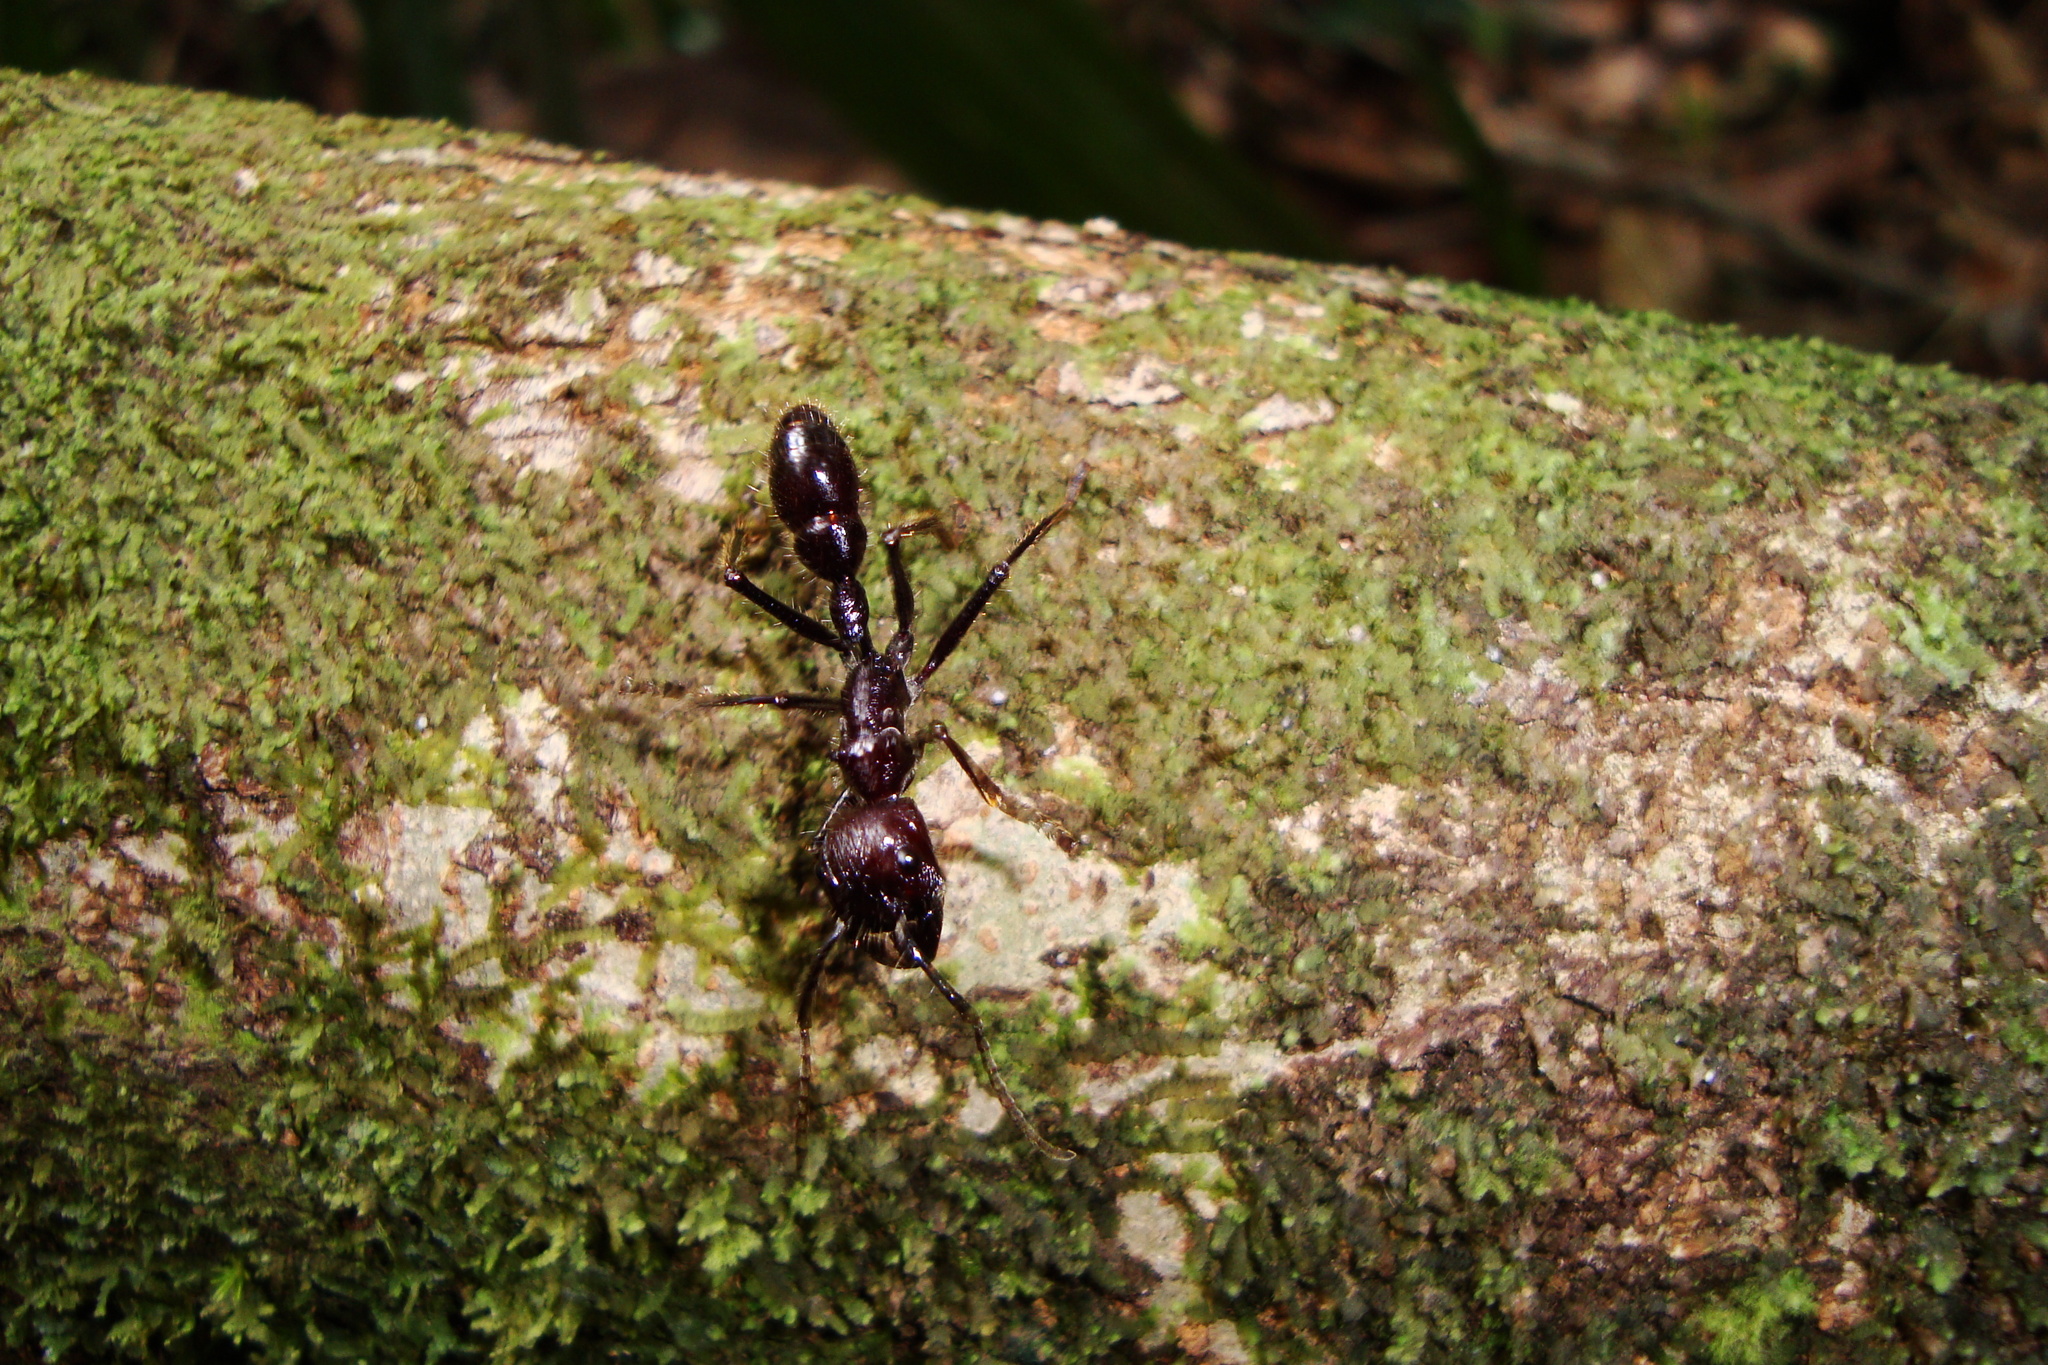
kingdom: Animalia
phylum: Arthropoda
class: Insecta
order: Hymenoptera
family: Formicidae
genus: Paraponera
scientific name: Paraponera clavata
